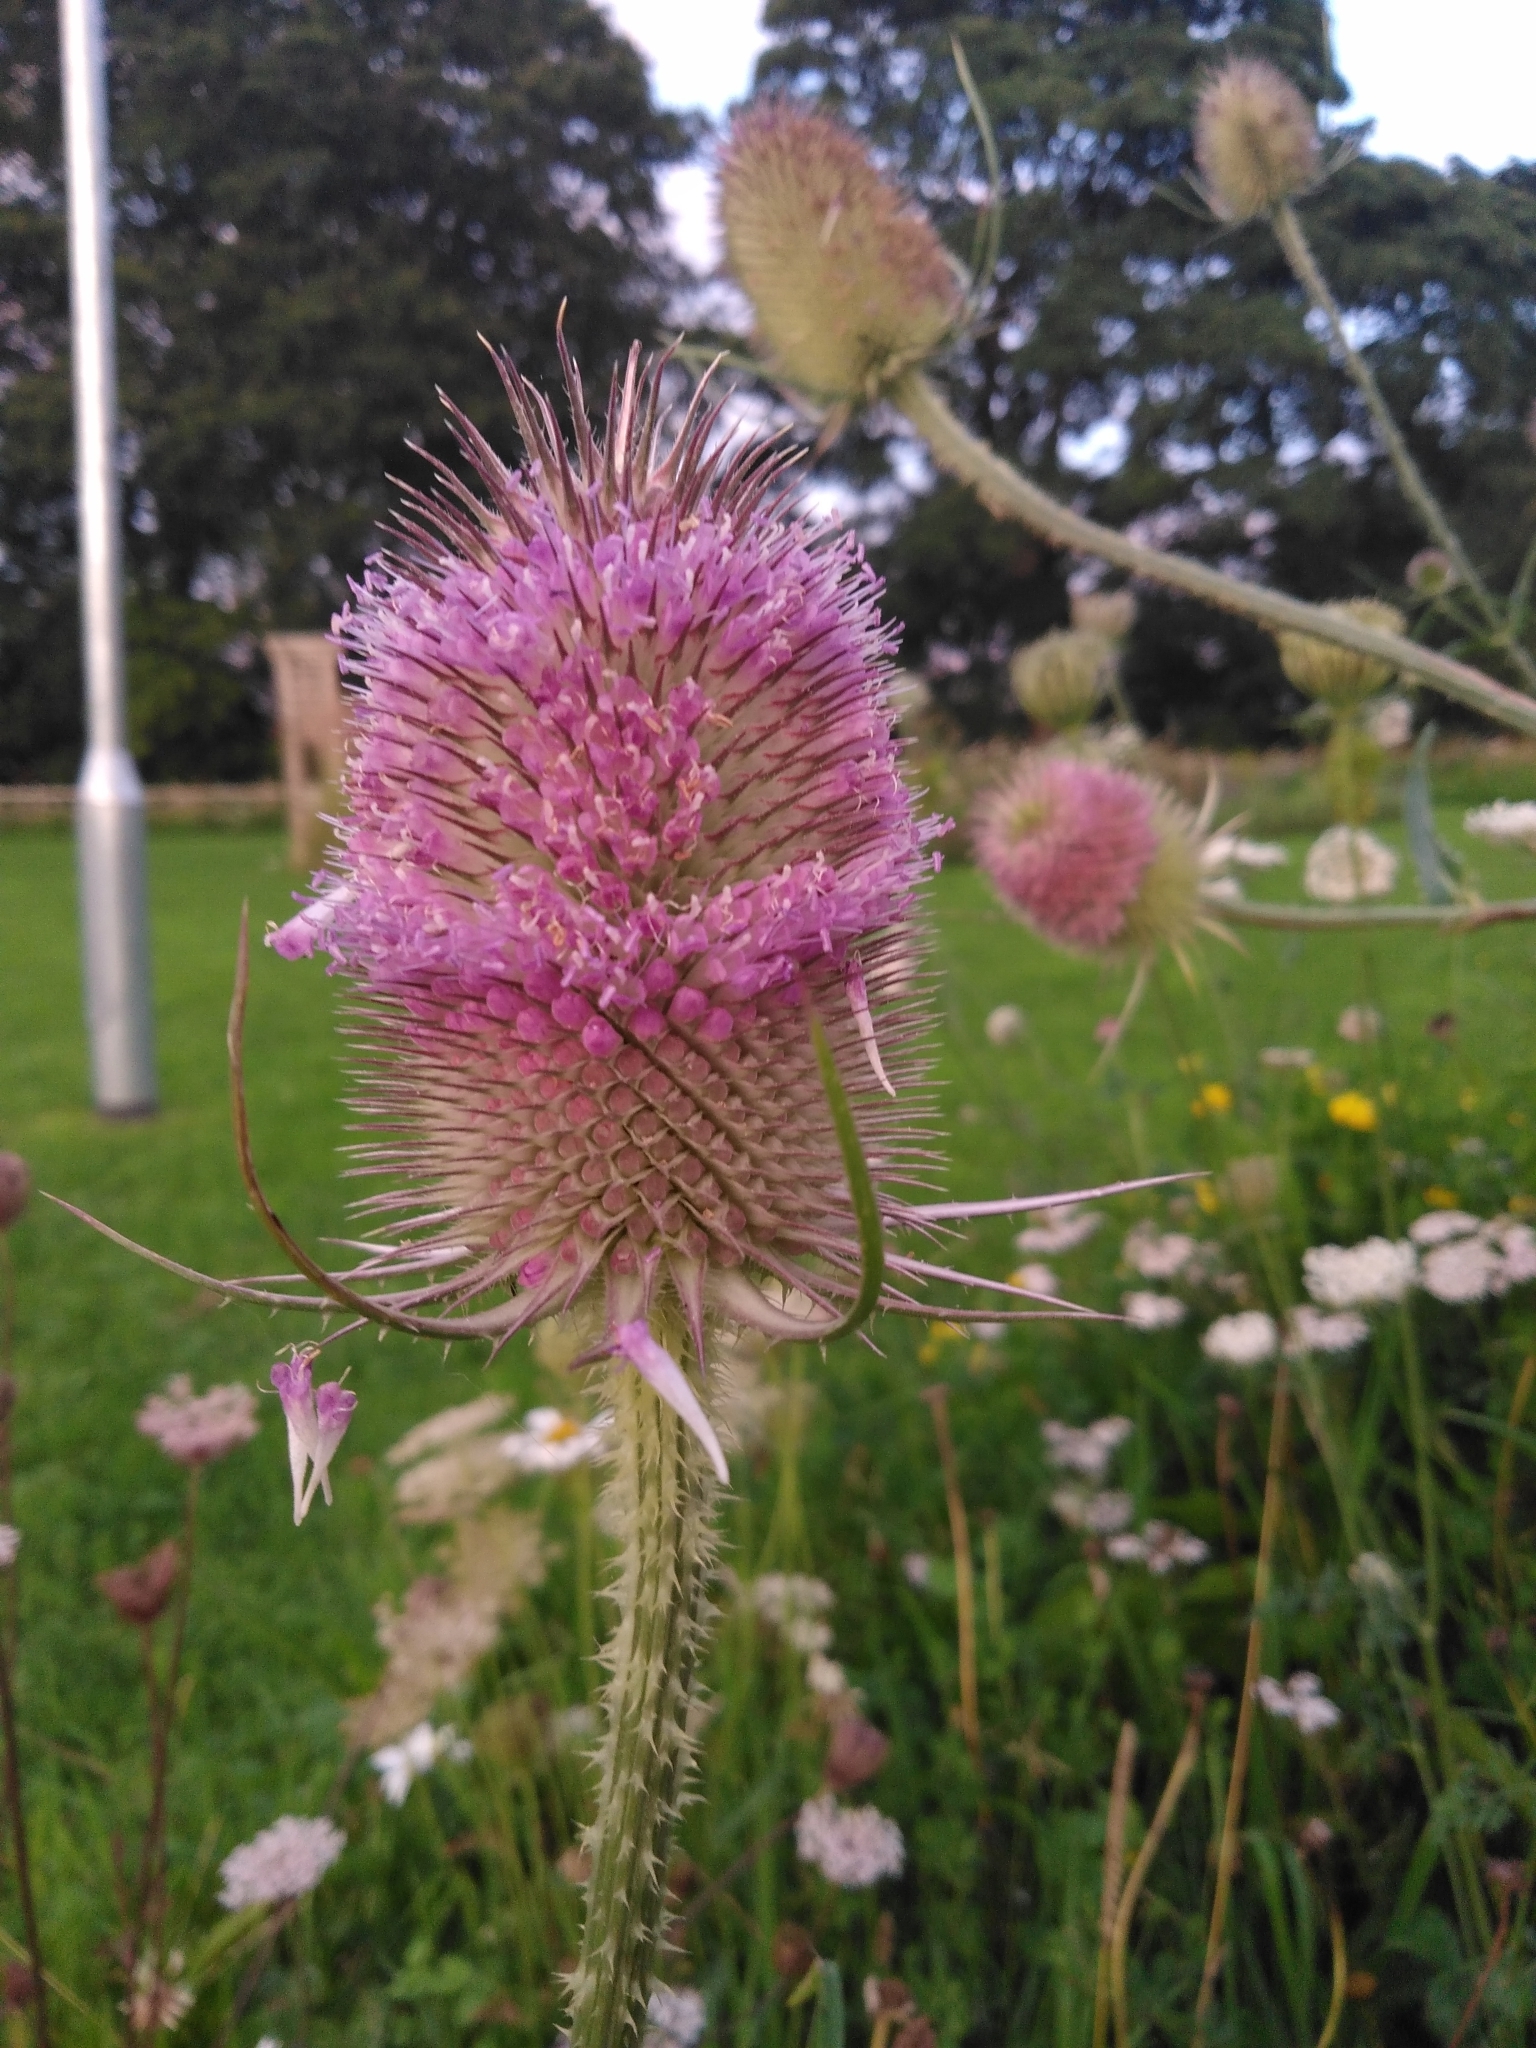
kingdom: Plantae
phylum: Tracheophyta
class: Magnoliopsida
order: Dipsacales
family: Caprifoliaceae
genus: Dipsacus
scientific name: Dipsacus fullonum
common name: Teasel
